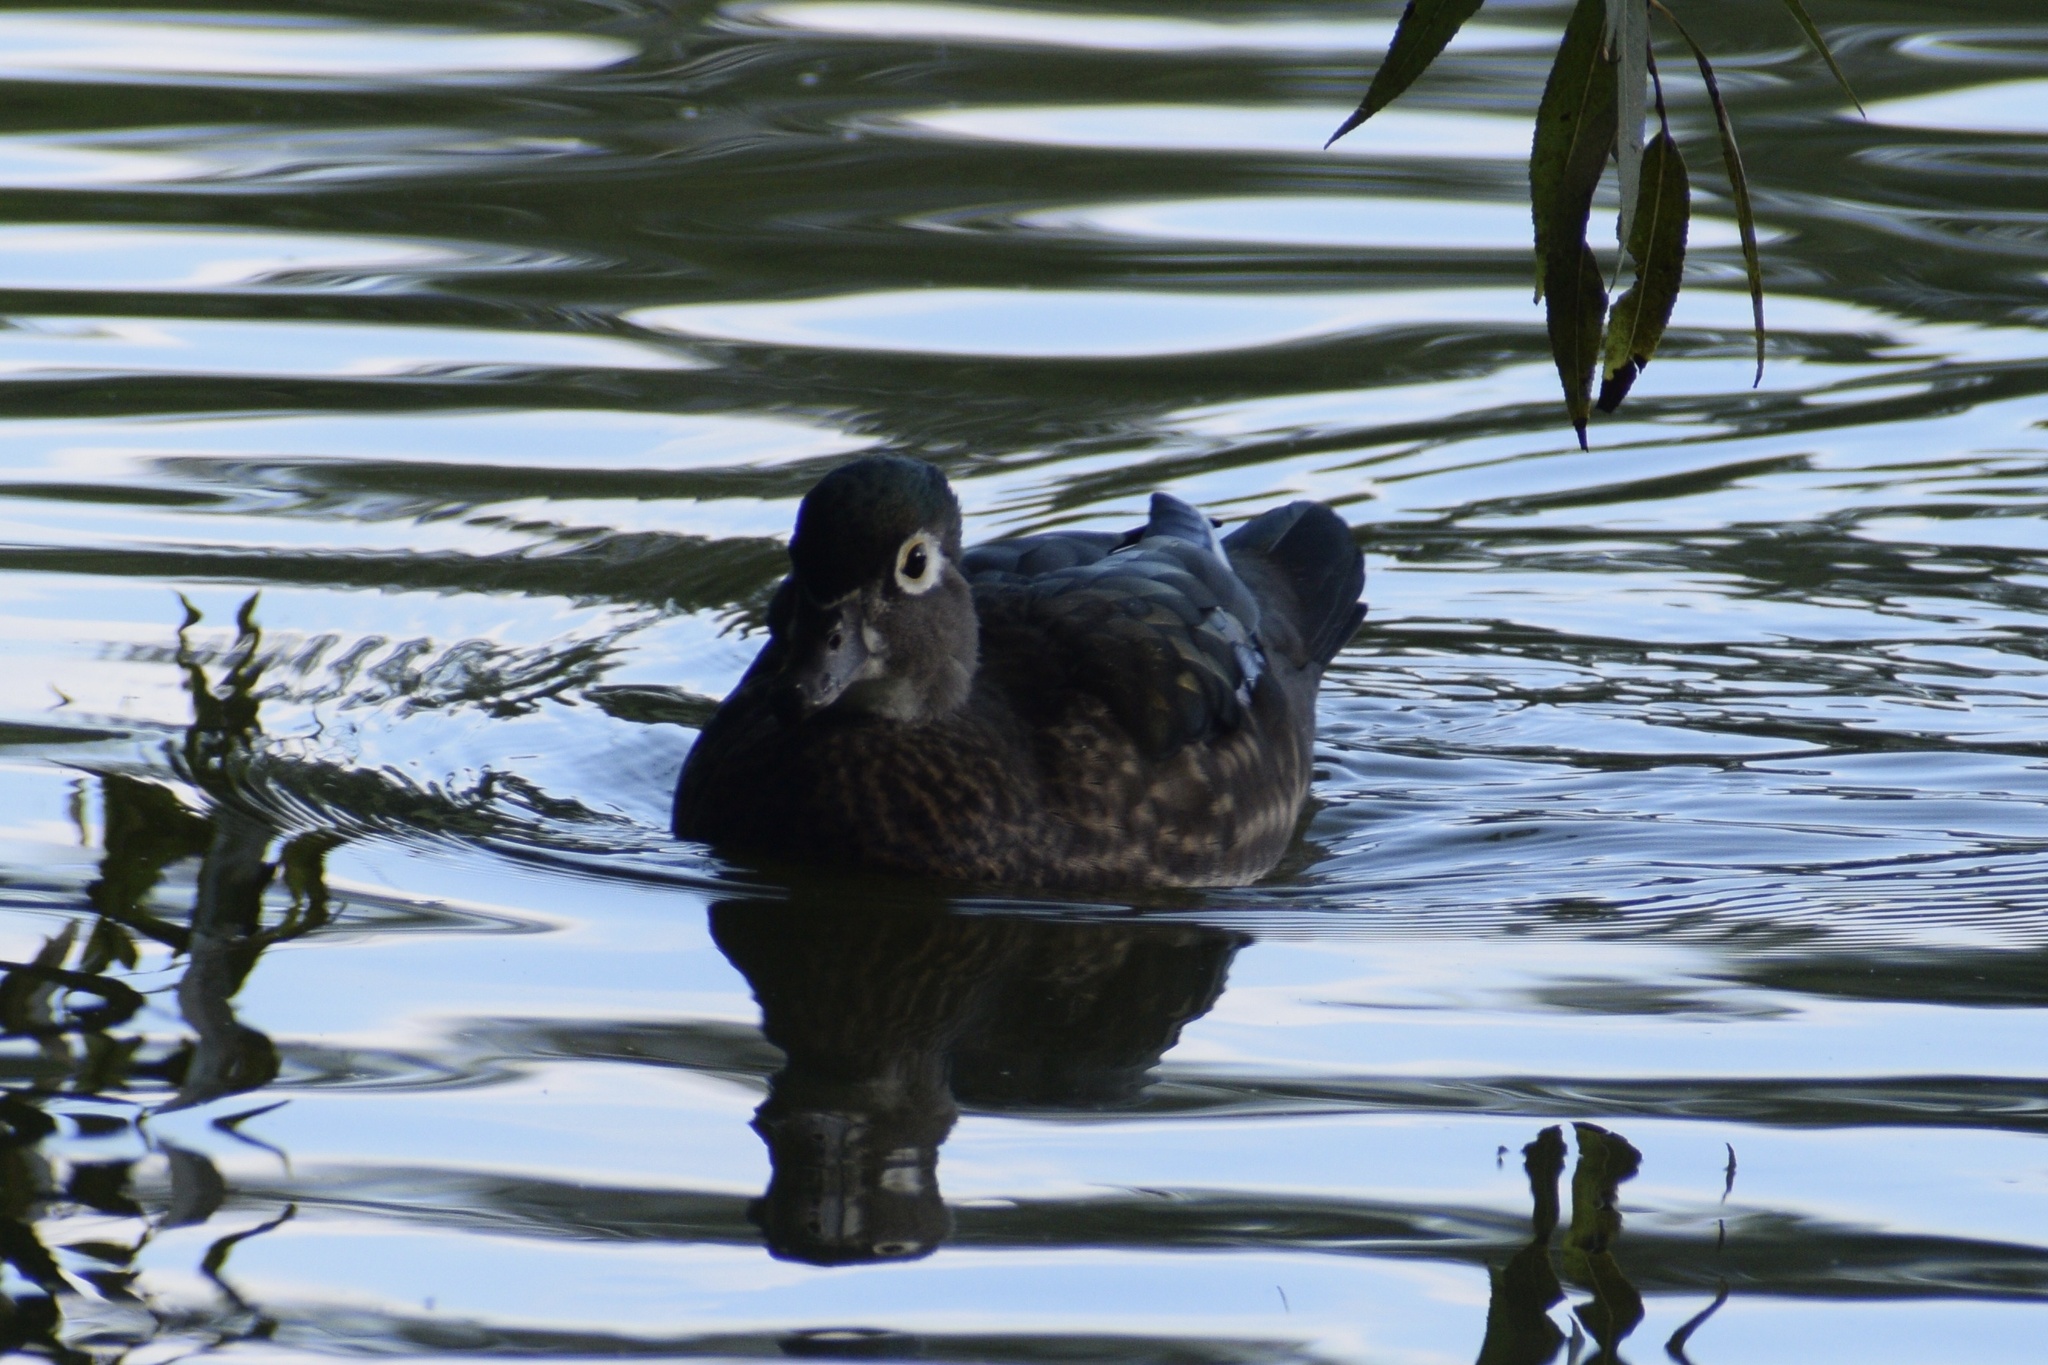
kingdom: Animalia
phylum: Chordata
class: Aves
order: Anseriformes
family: Anatidae
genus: Aix
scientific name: Aix sponsa
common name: Wood duck
